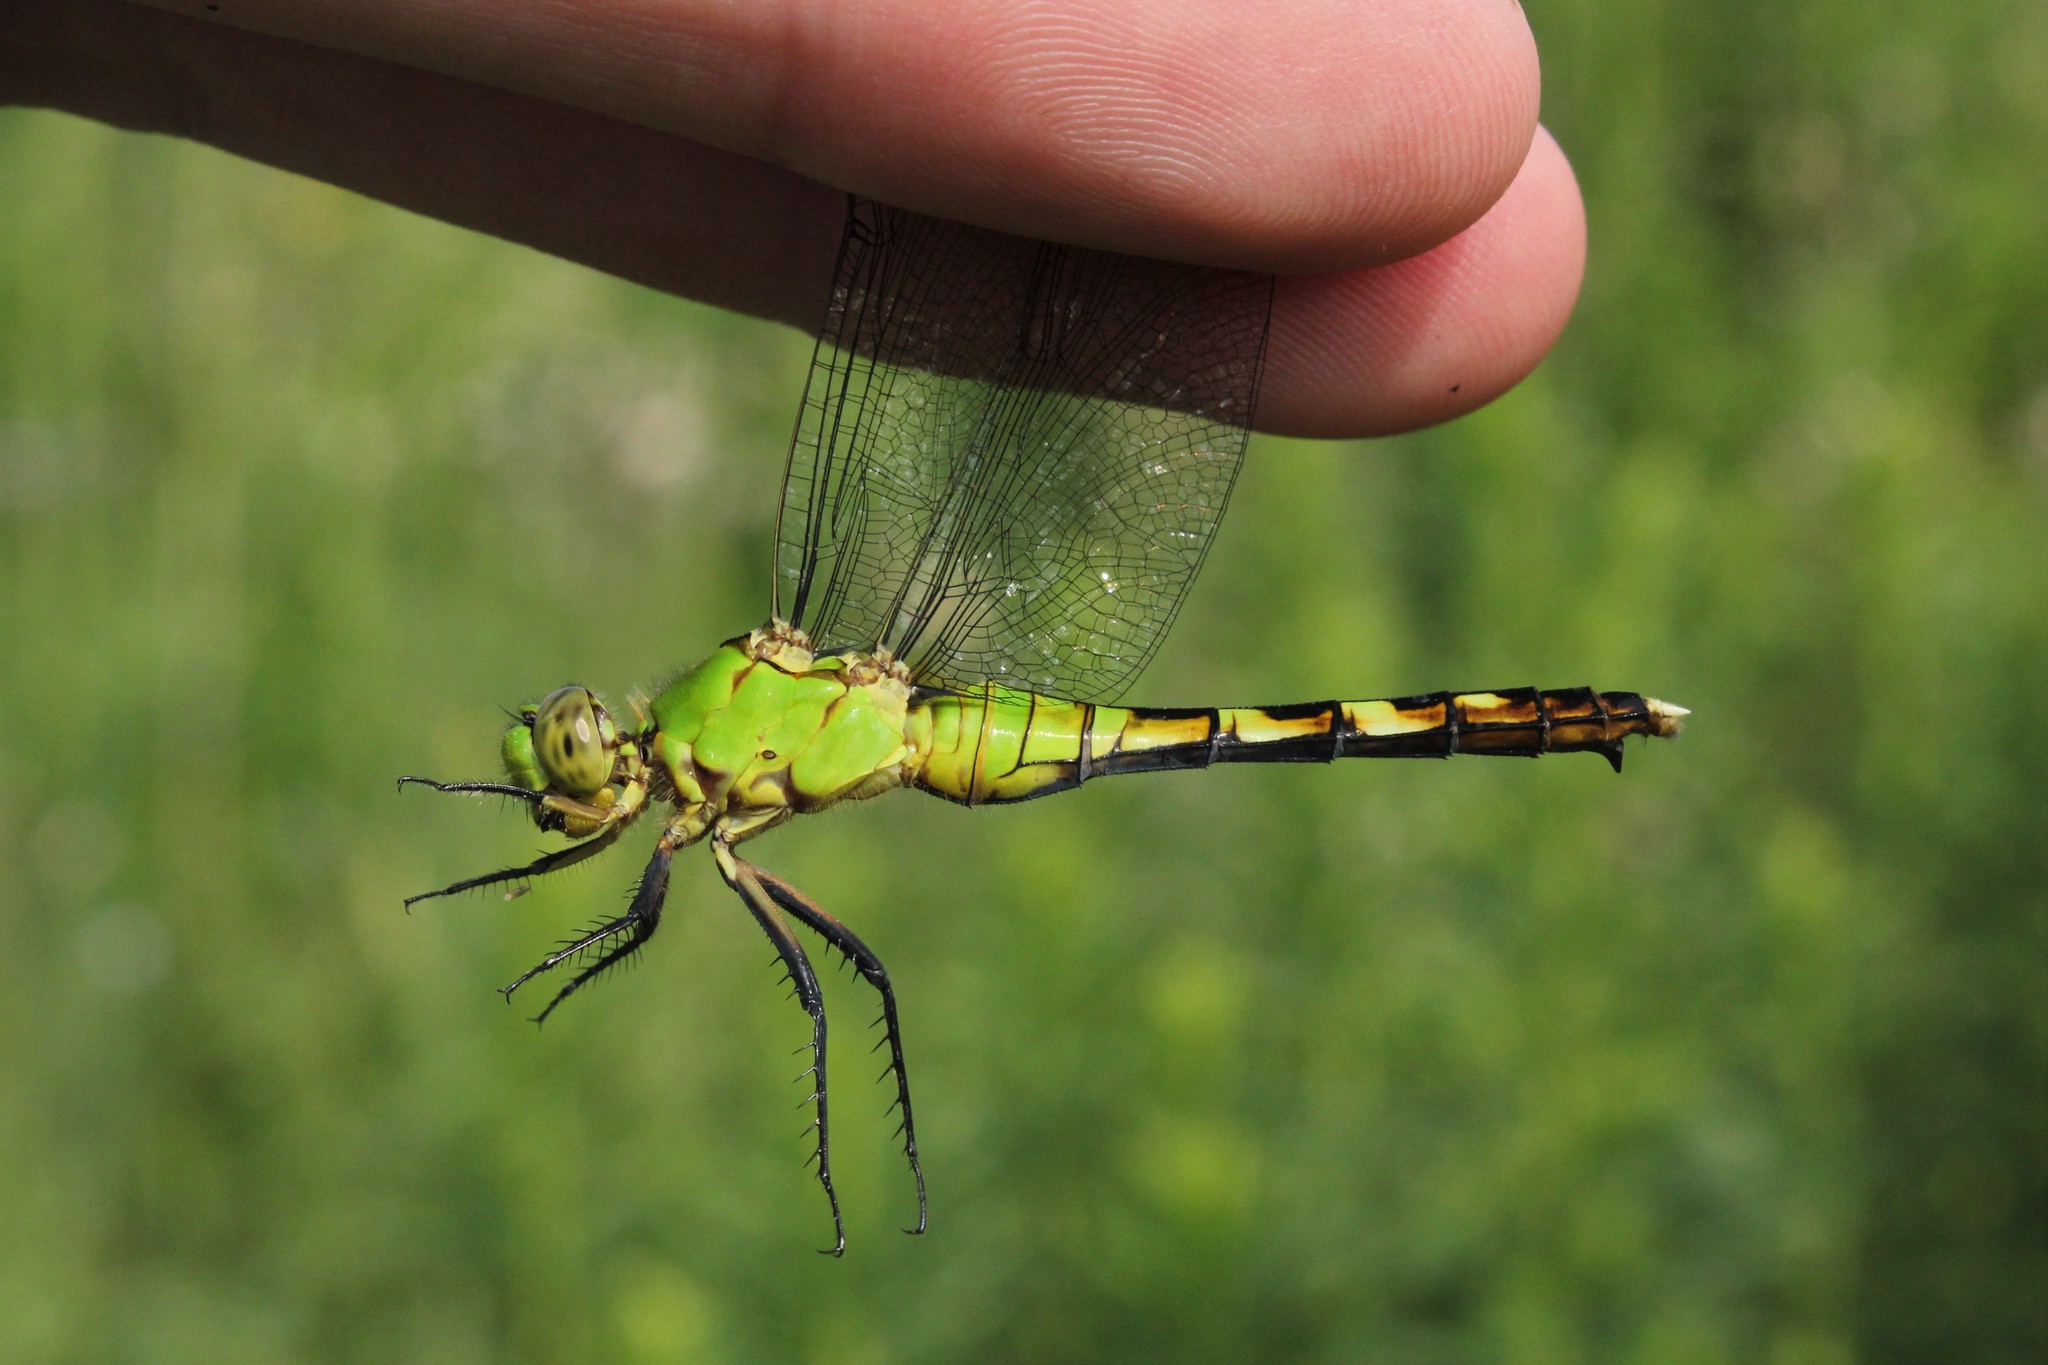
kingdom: Animalia
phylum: Arthropoda
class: Insecta
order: Odonata
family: Libellulidae
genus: Erythemis
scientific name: Erythemis simplicicollis
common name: Eastern pondhawk
